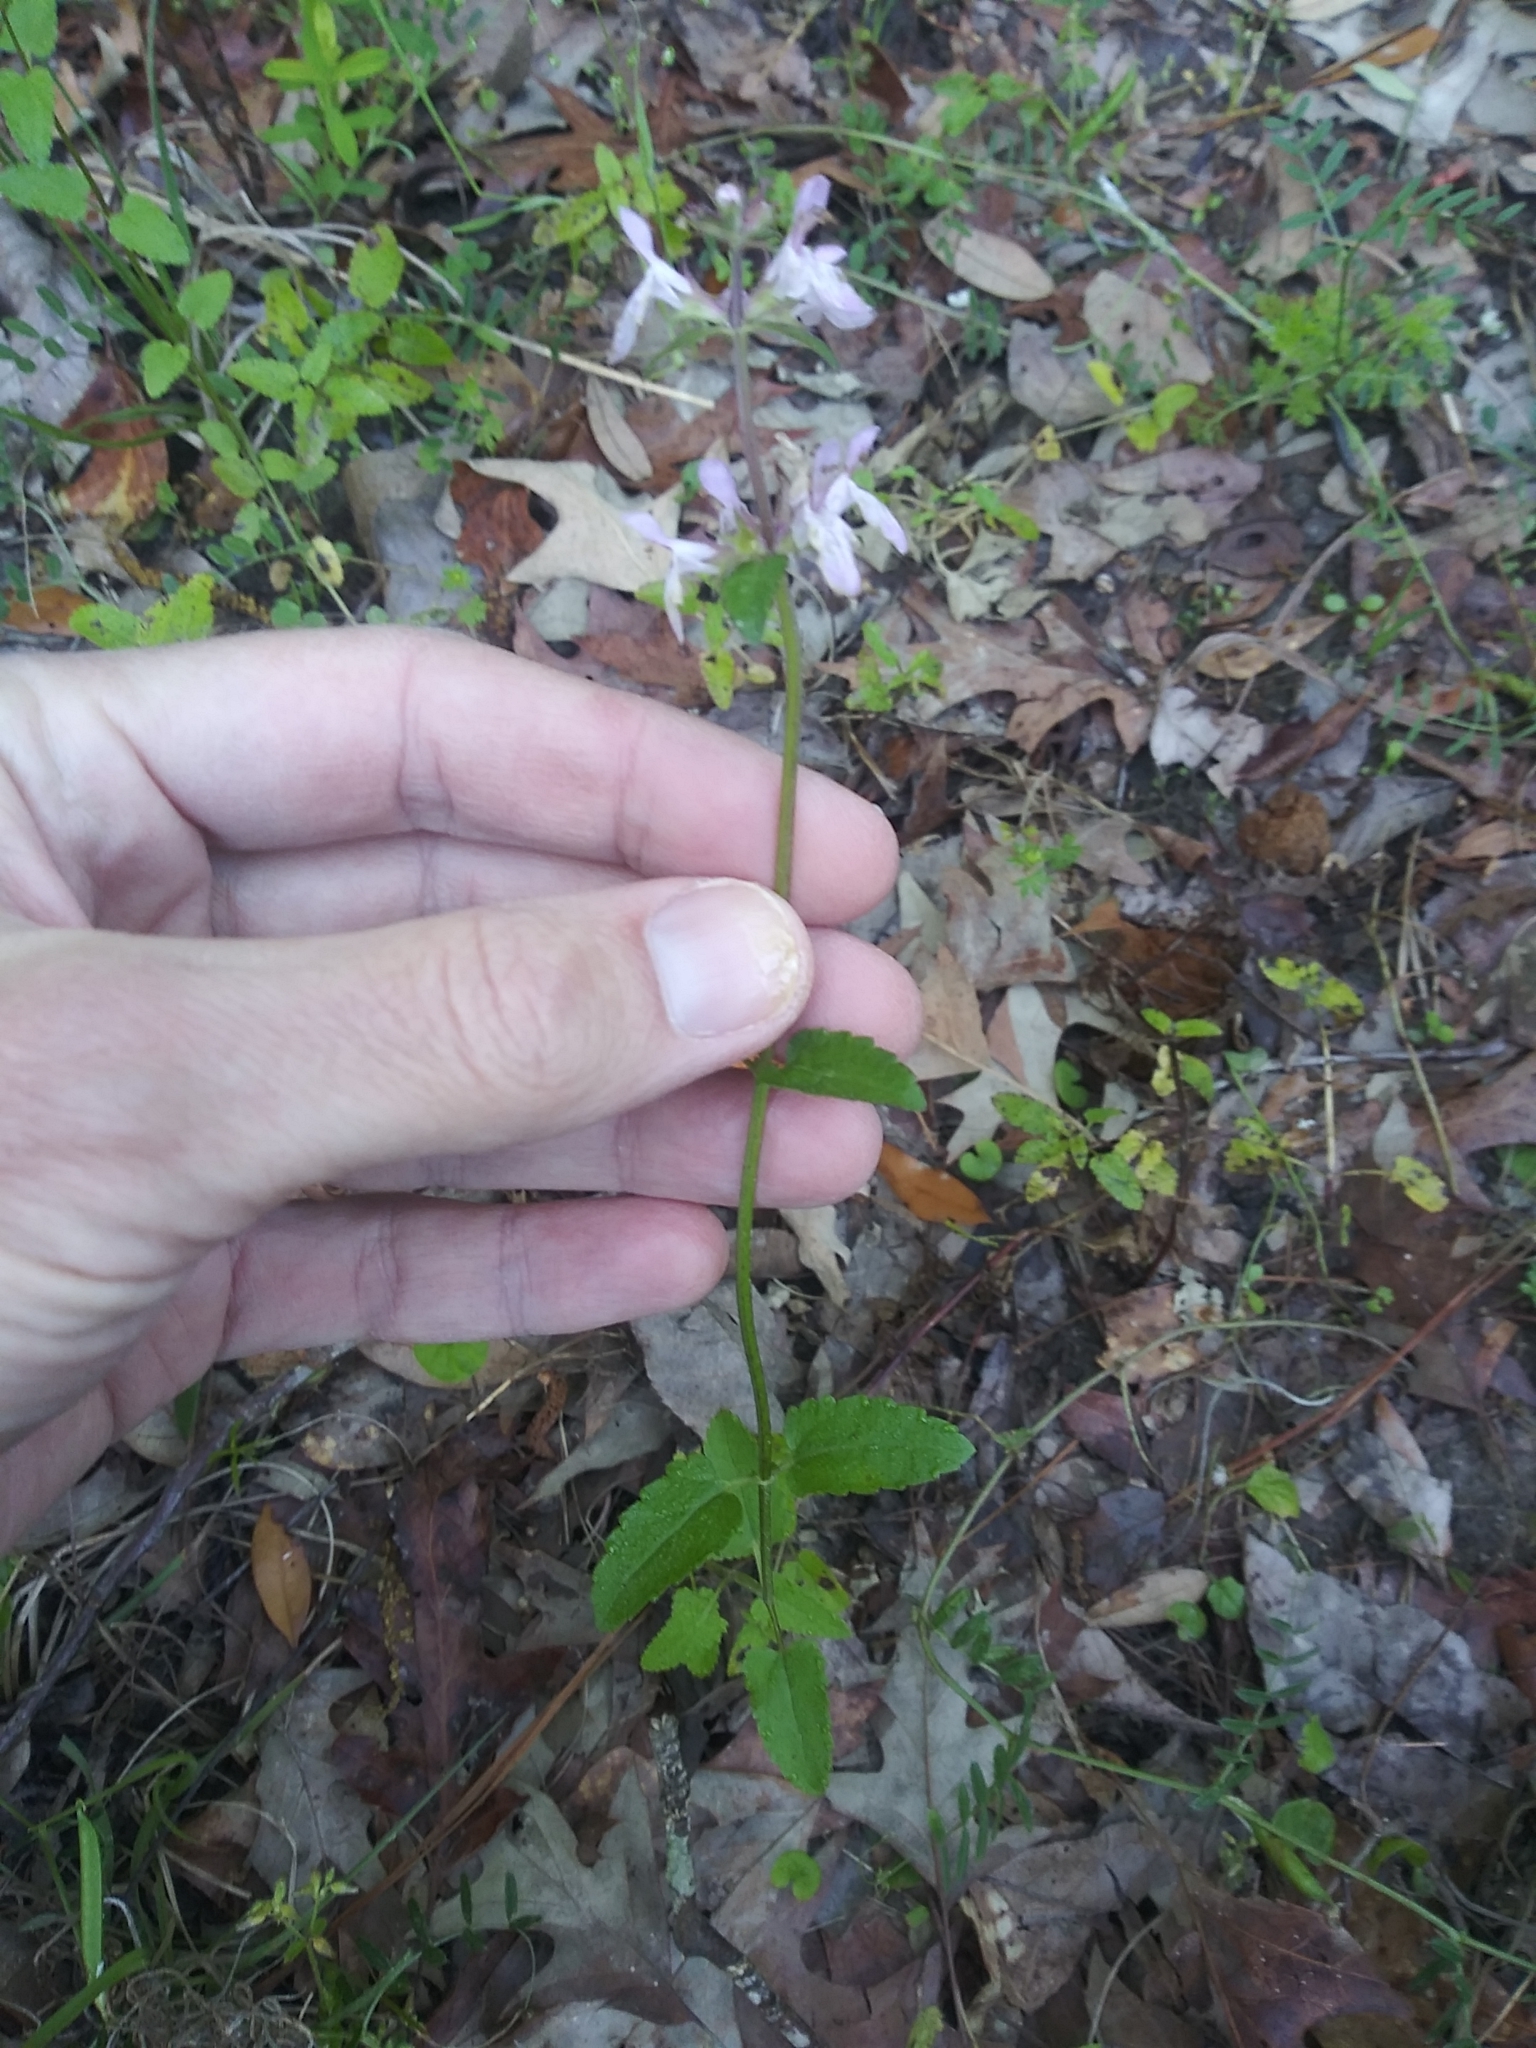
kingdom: Plantae
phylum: Tracheophyta
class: Magnoliopsida
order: Lamiales
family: Lamiaceae
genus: Stachys
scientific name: Stachys floridana
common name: Florida betony
